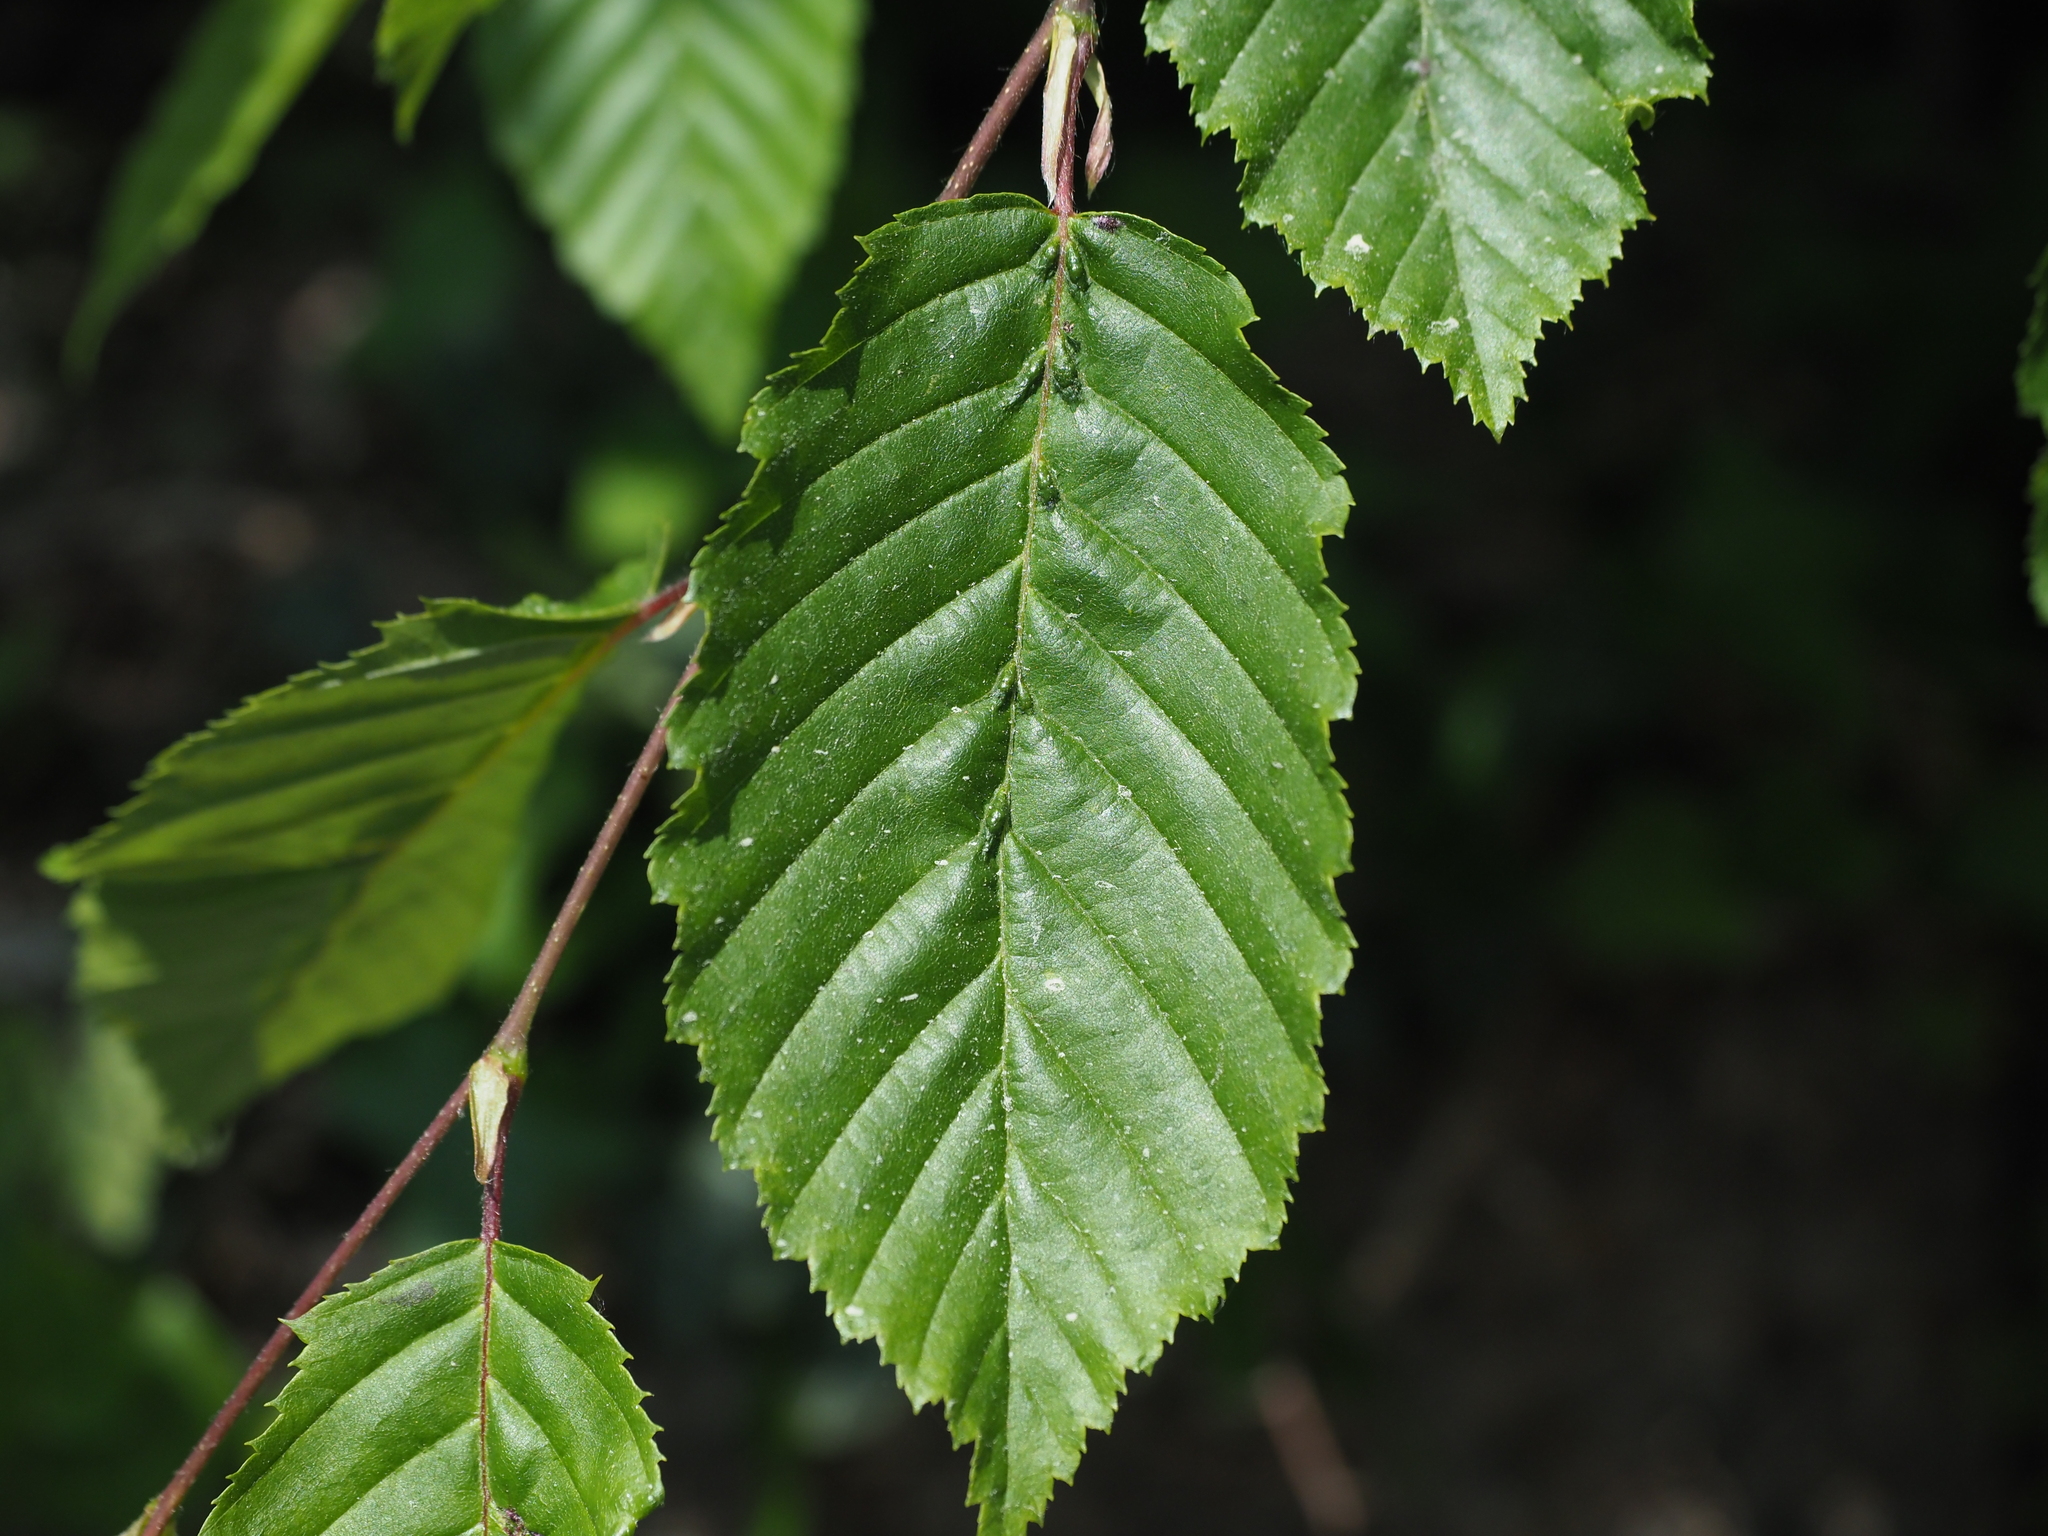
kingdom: Plantae
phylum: Tracheophyta
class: Magnoliopsida
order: Fagales
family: Betulaceae
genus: Carpinus
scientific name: Carpinus betulus
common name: Hornbeam
